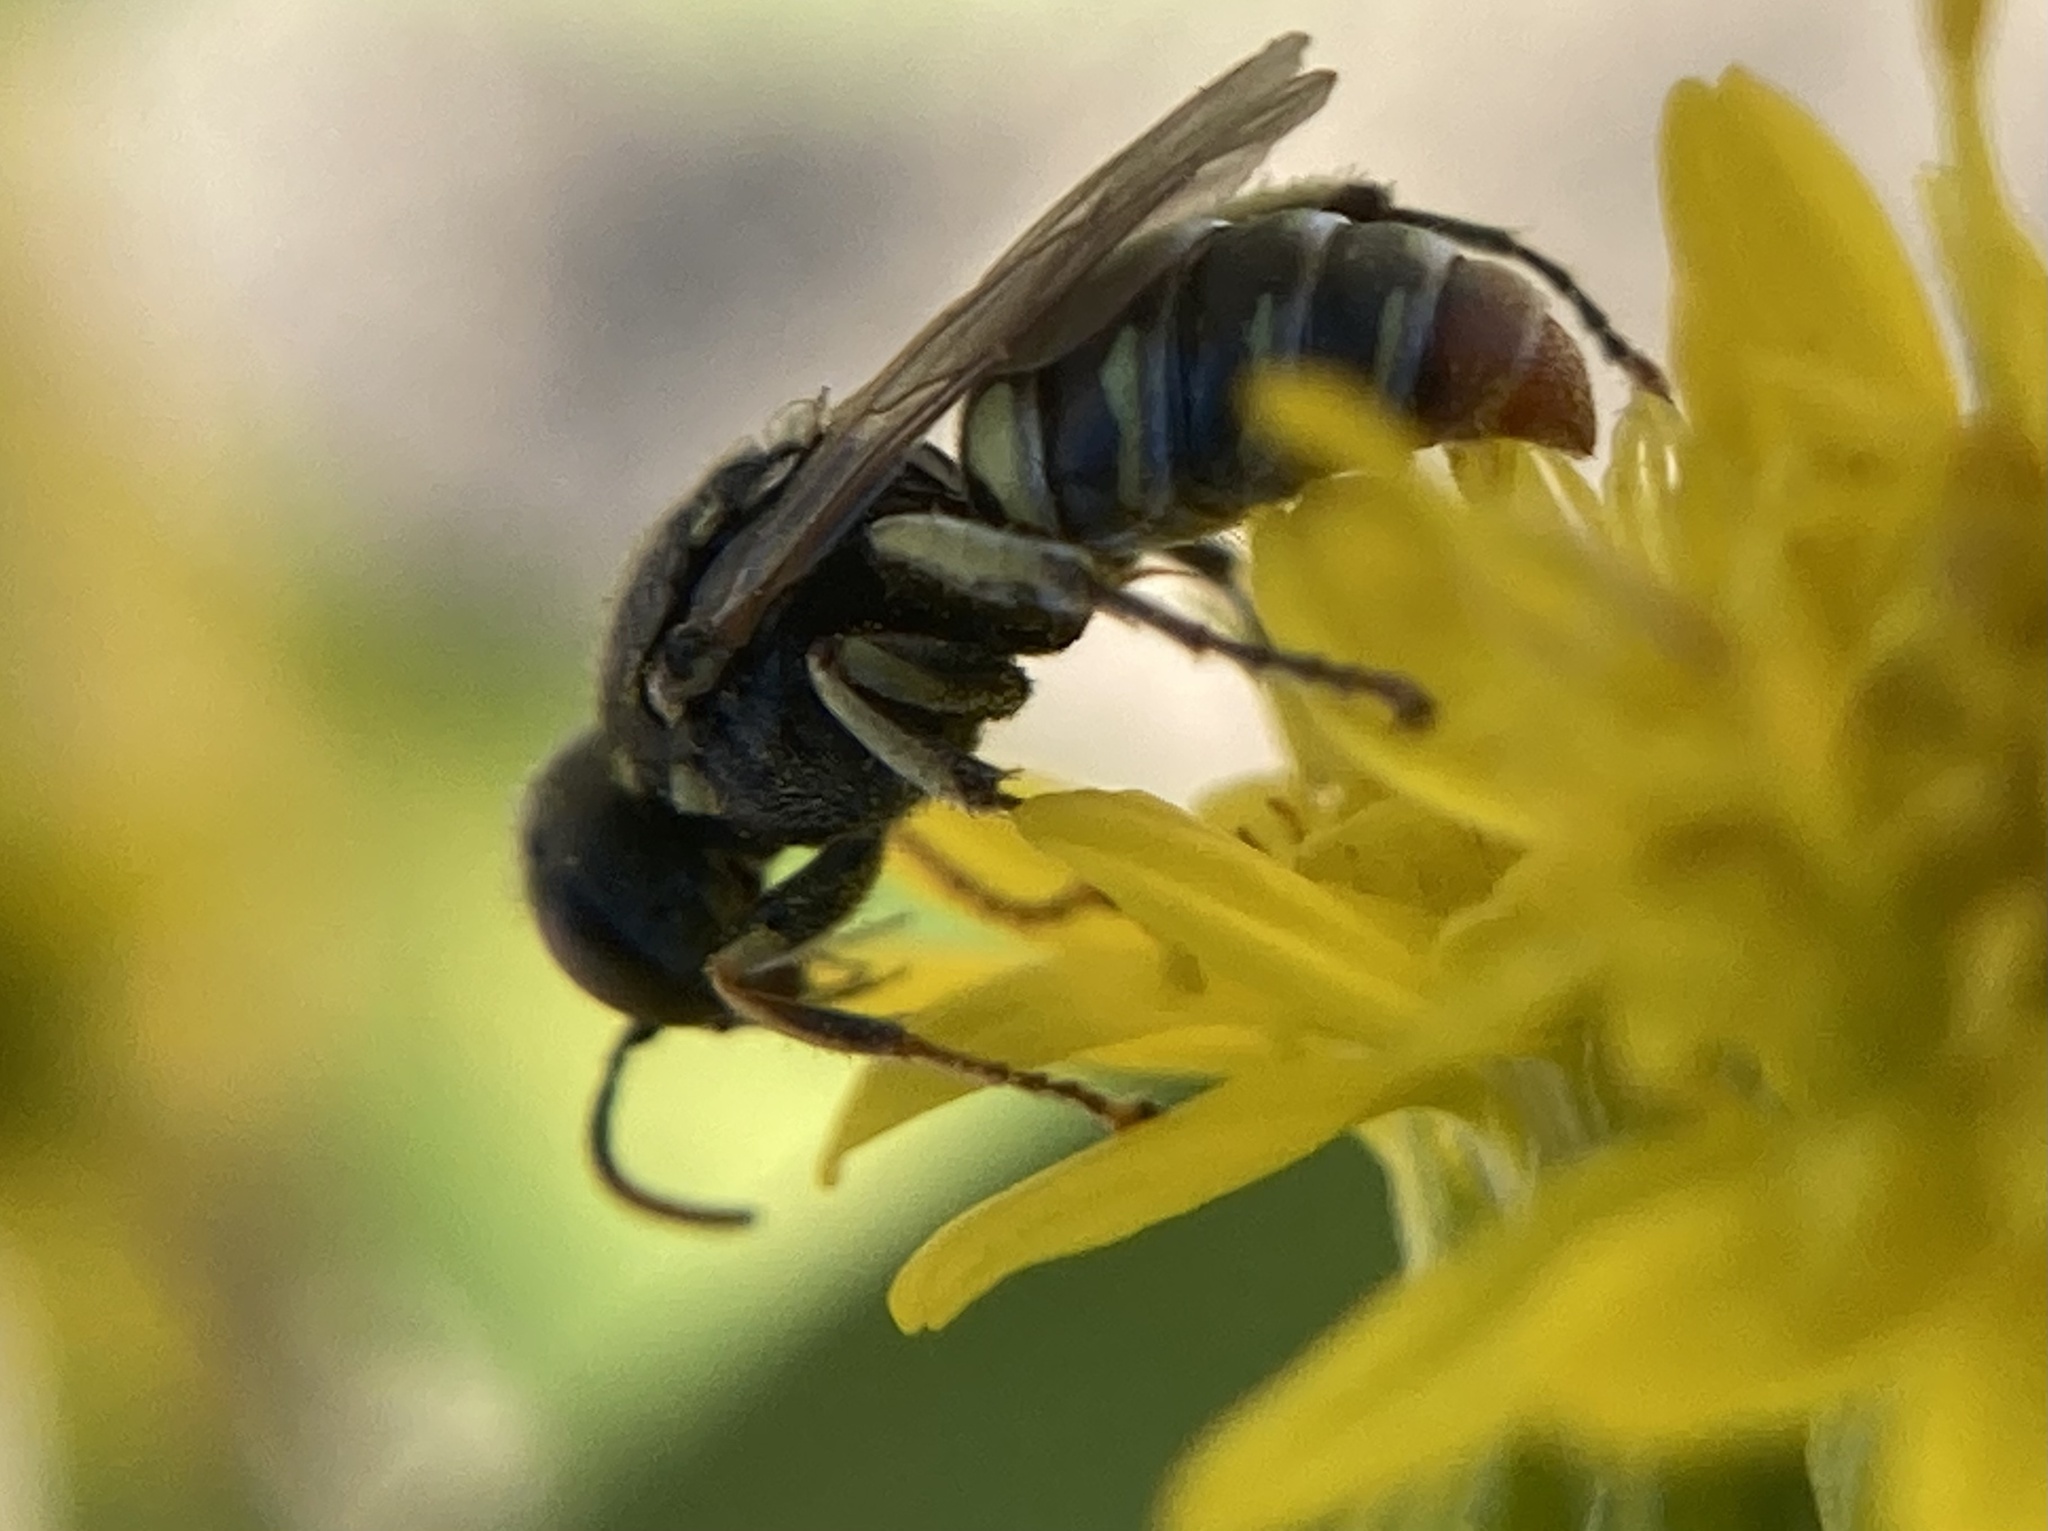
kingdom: Animalia
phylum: Arthropoda
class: Insecta
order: Hymenoptera
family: Crabronidae
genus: Oxybelus
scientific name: Oxybelus
